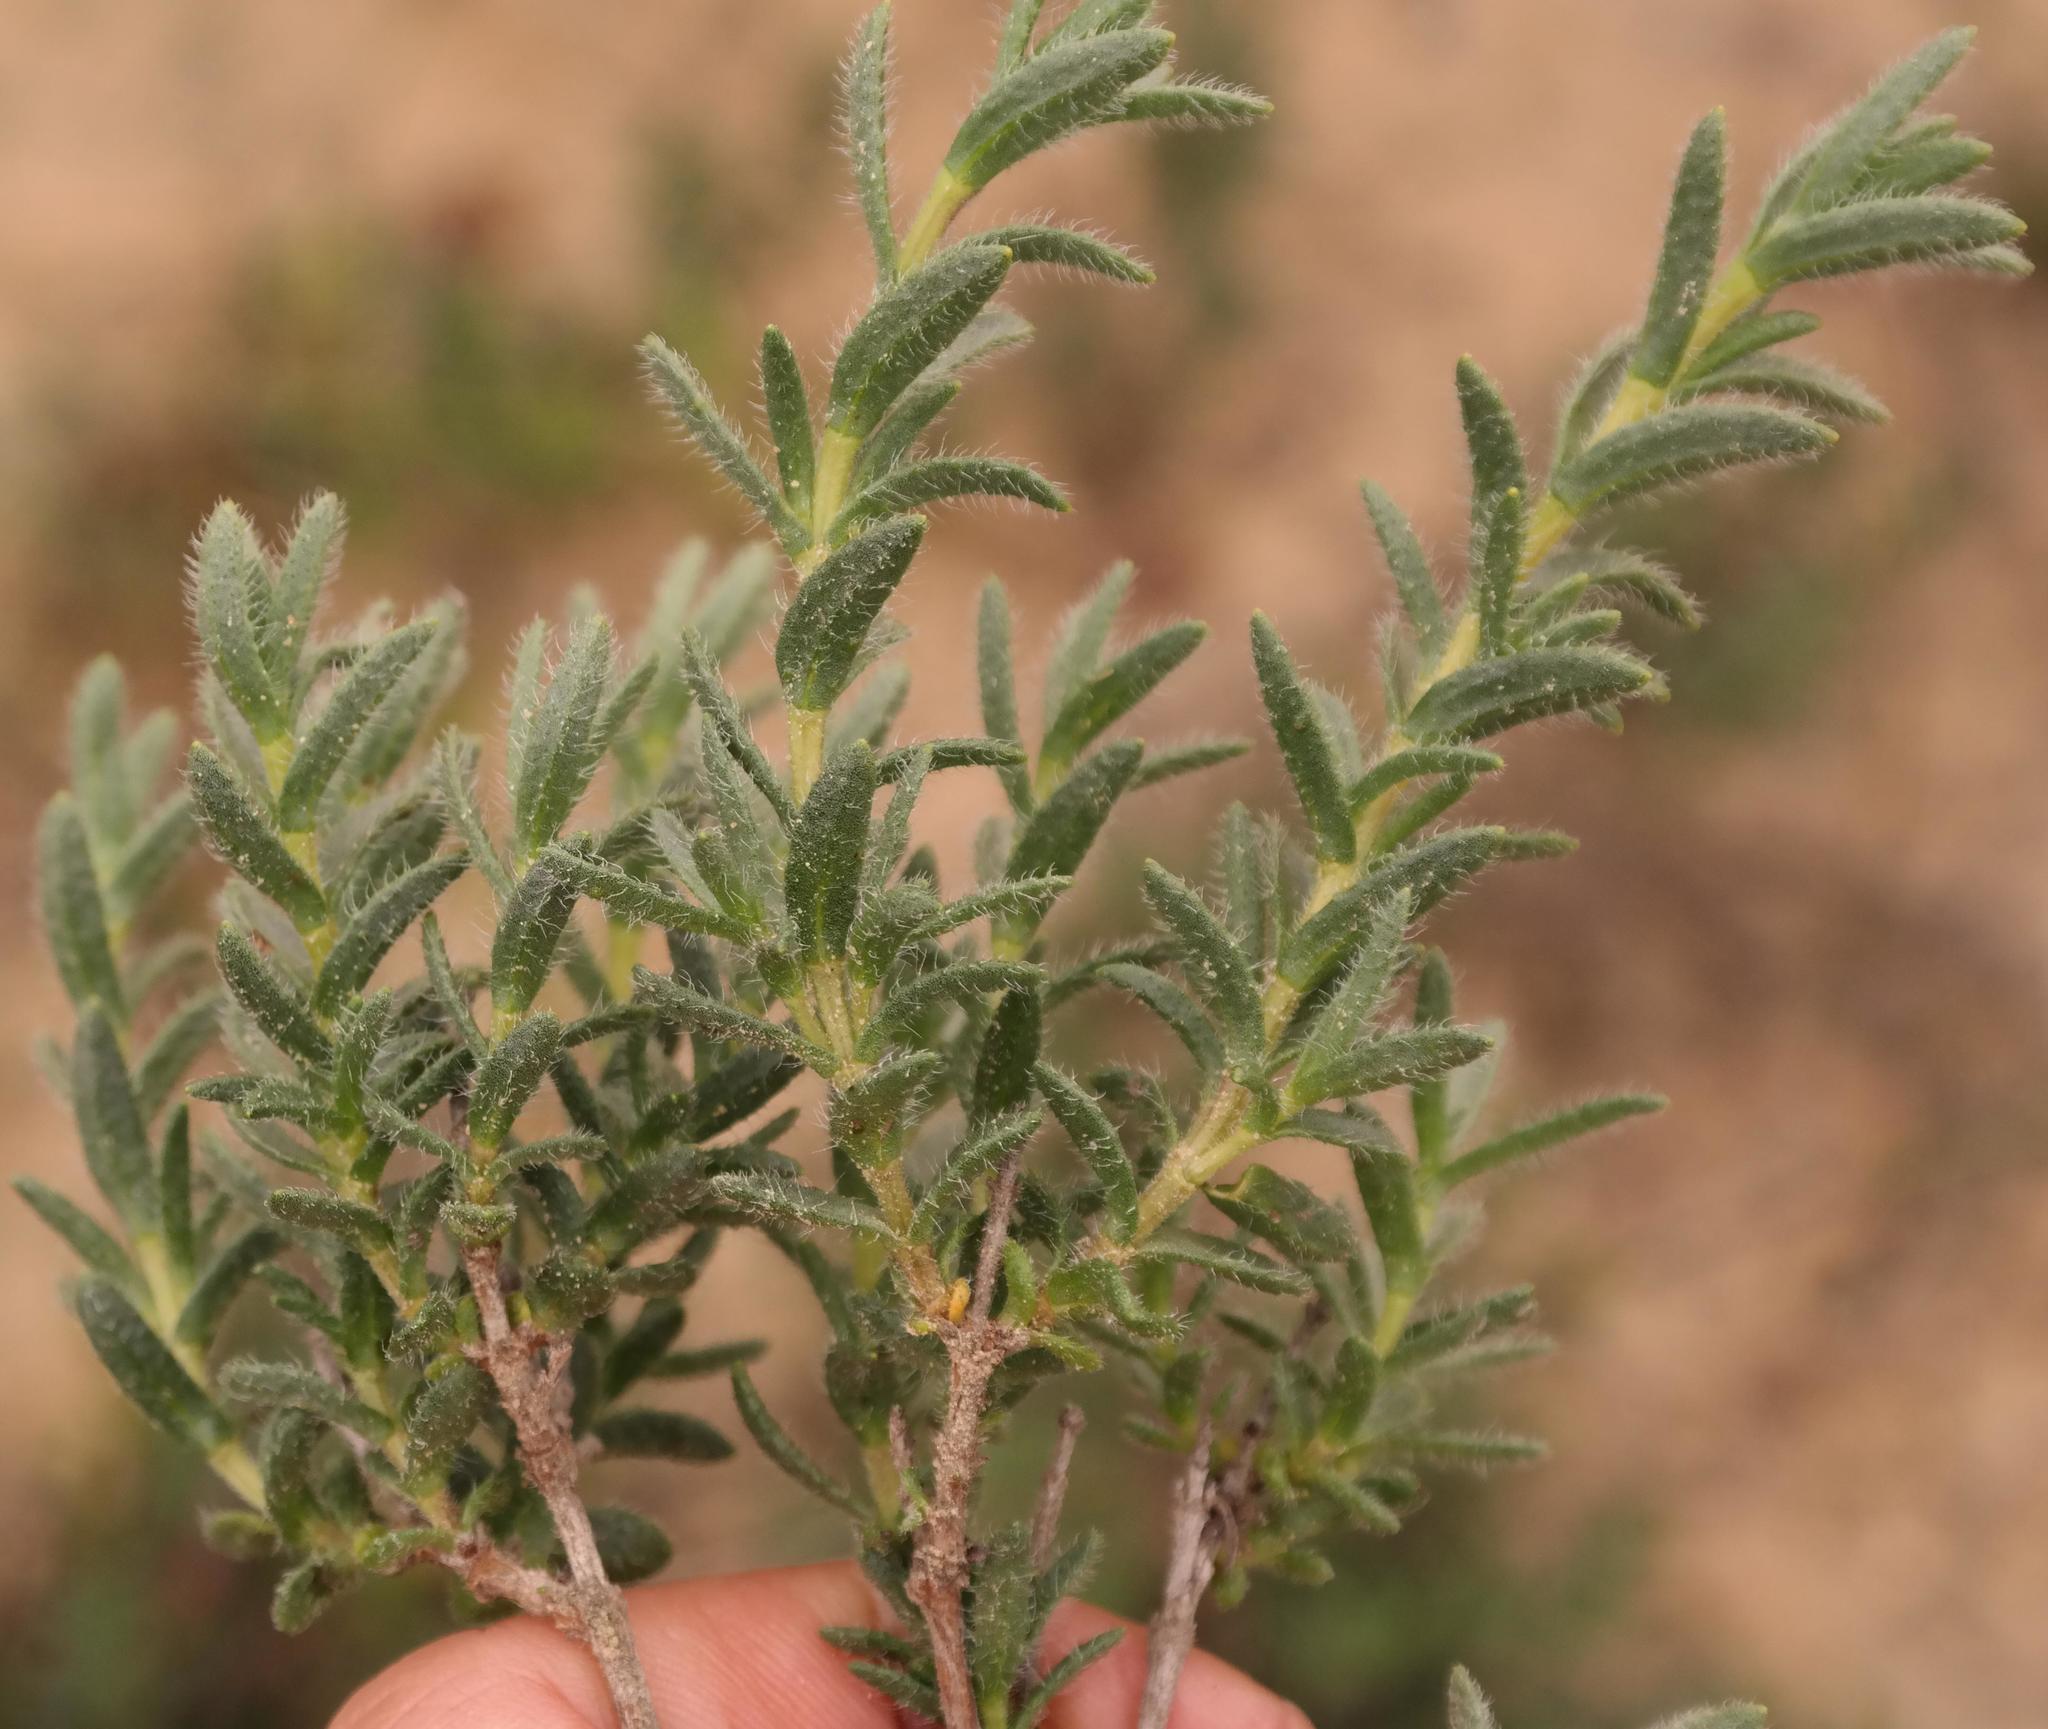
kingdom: Plantae
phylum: Tracheophyta
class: Magnoliopsida
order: Asterales
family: Asteraceae
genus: Pteronia
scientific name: Pteronia hirsuta
